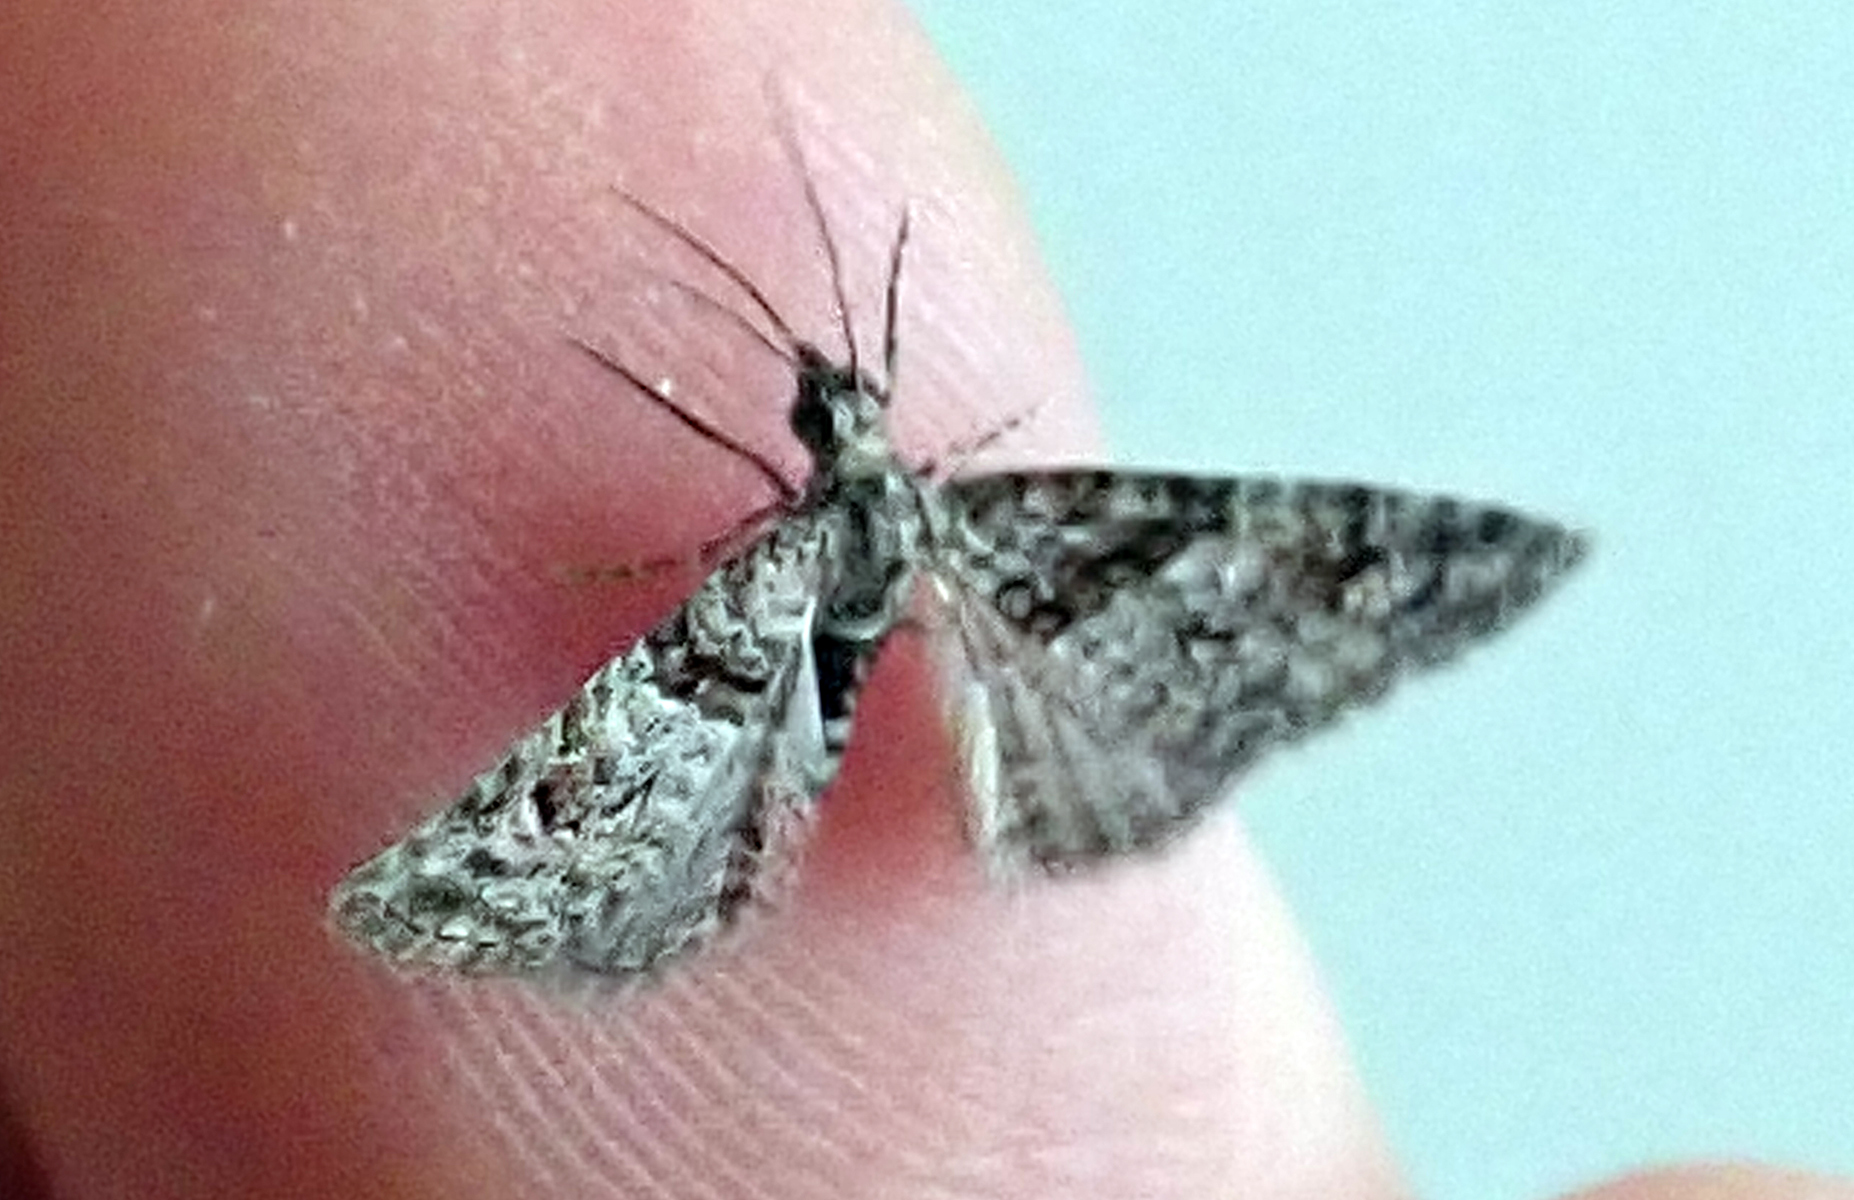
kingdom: Animalia
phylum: Arthropoda
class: Insecta
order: Lepidoptera
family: Geometridae
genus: Phrissogonus
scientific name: Phrissogonus laticostata
